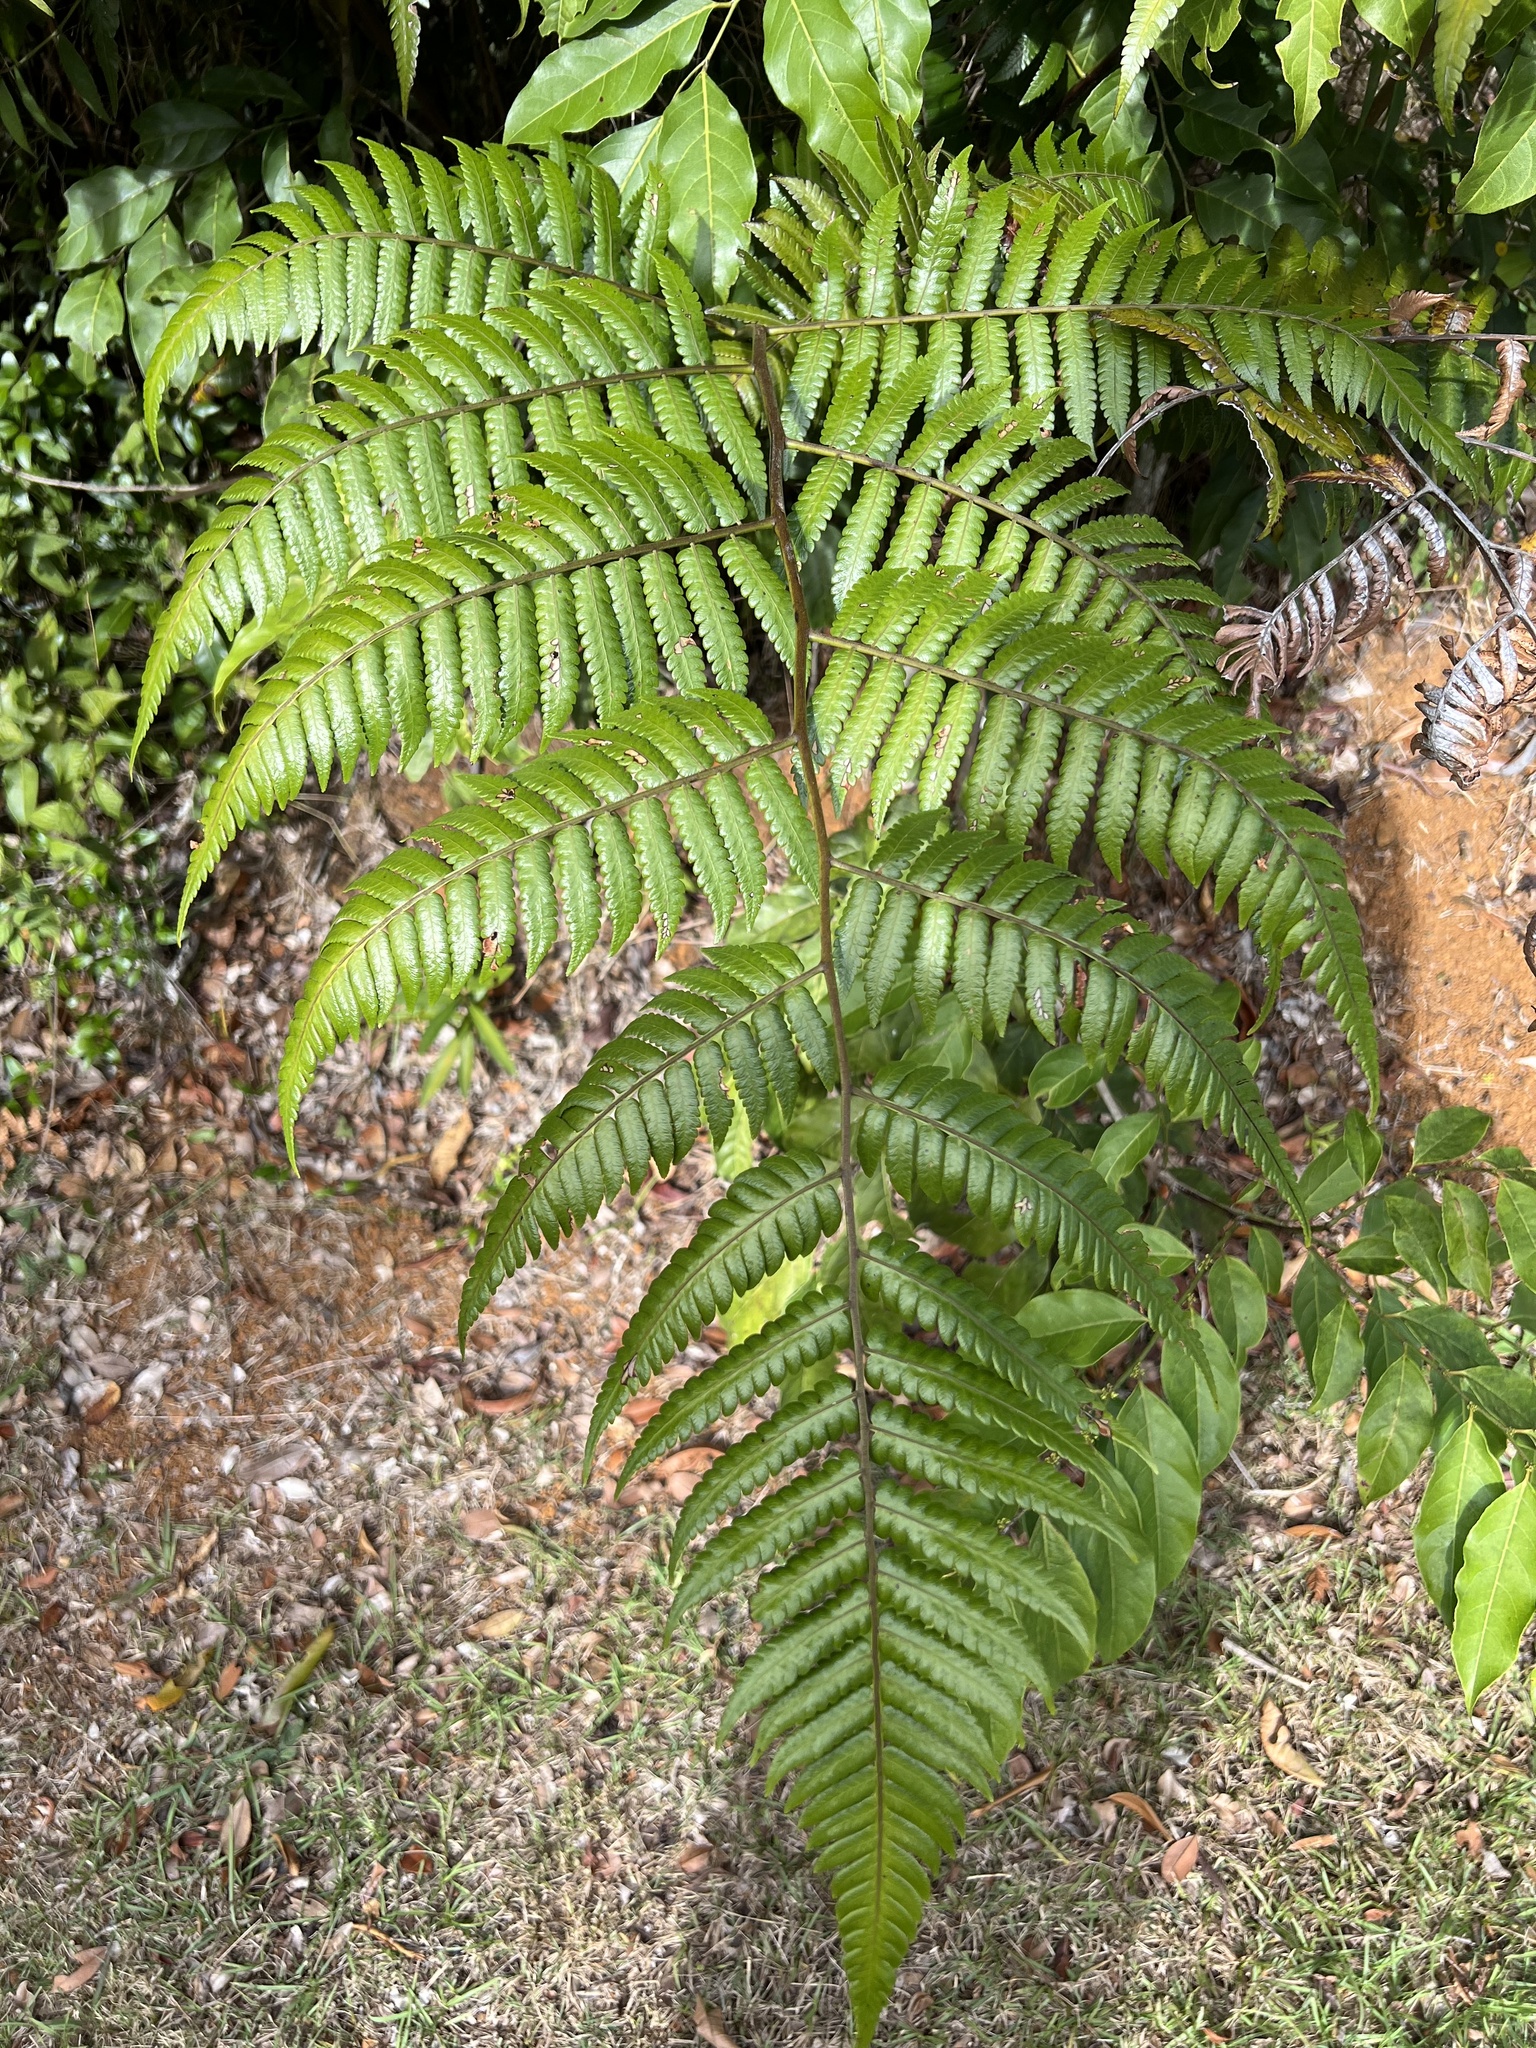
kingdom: Plantae
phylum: Tracheophyta
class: Polypodiopsida
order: Cyatheales
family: Cyatheaceae
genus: Cyathea
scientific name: Cyathea borinquena
